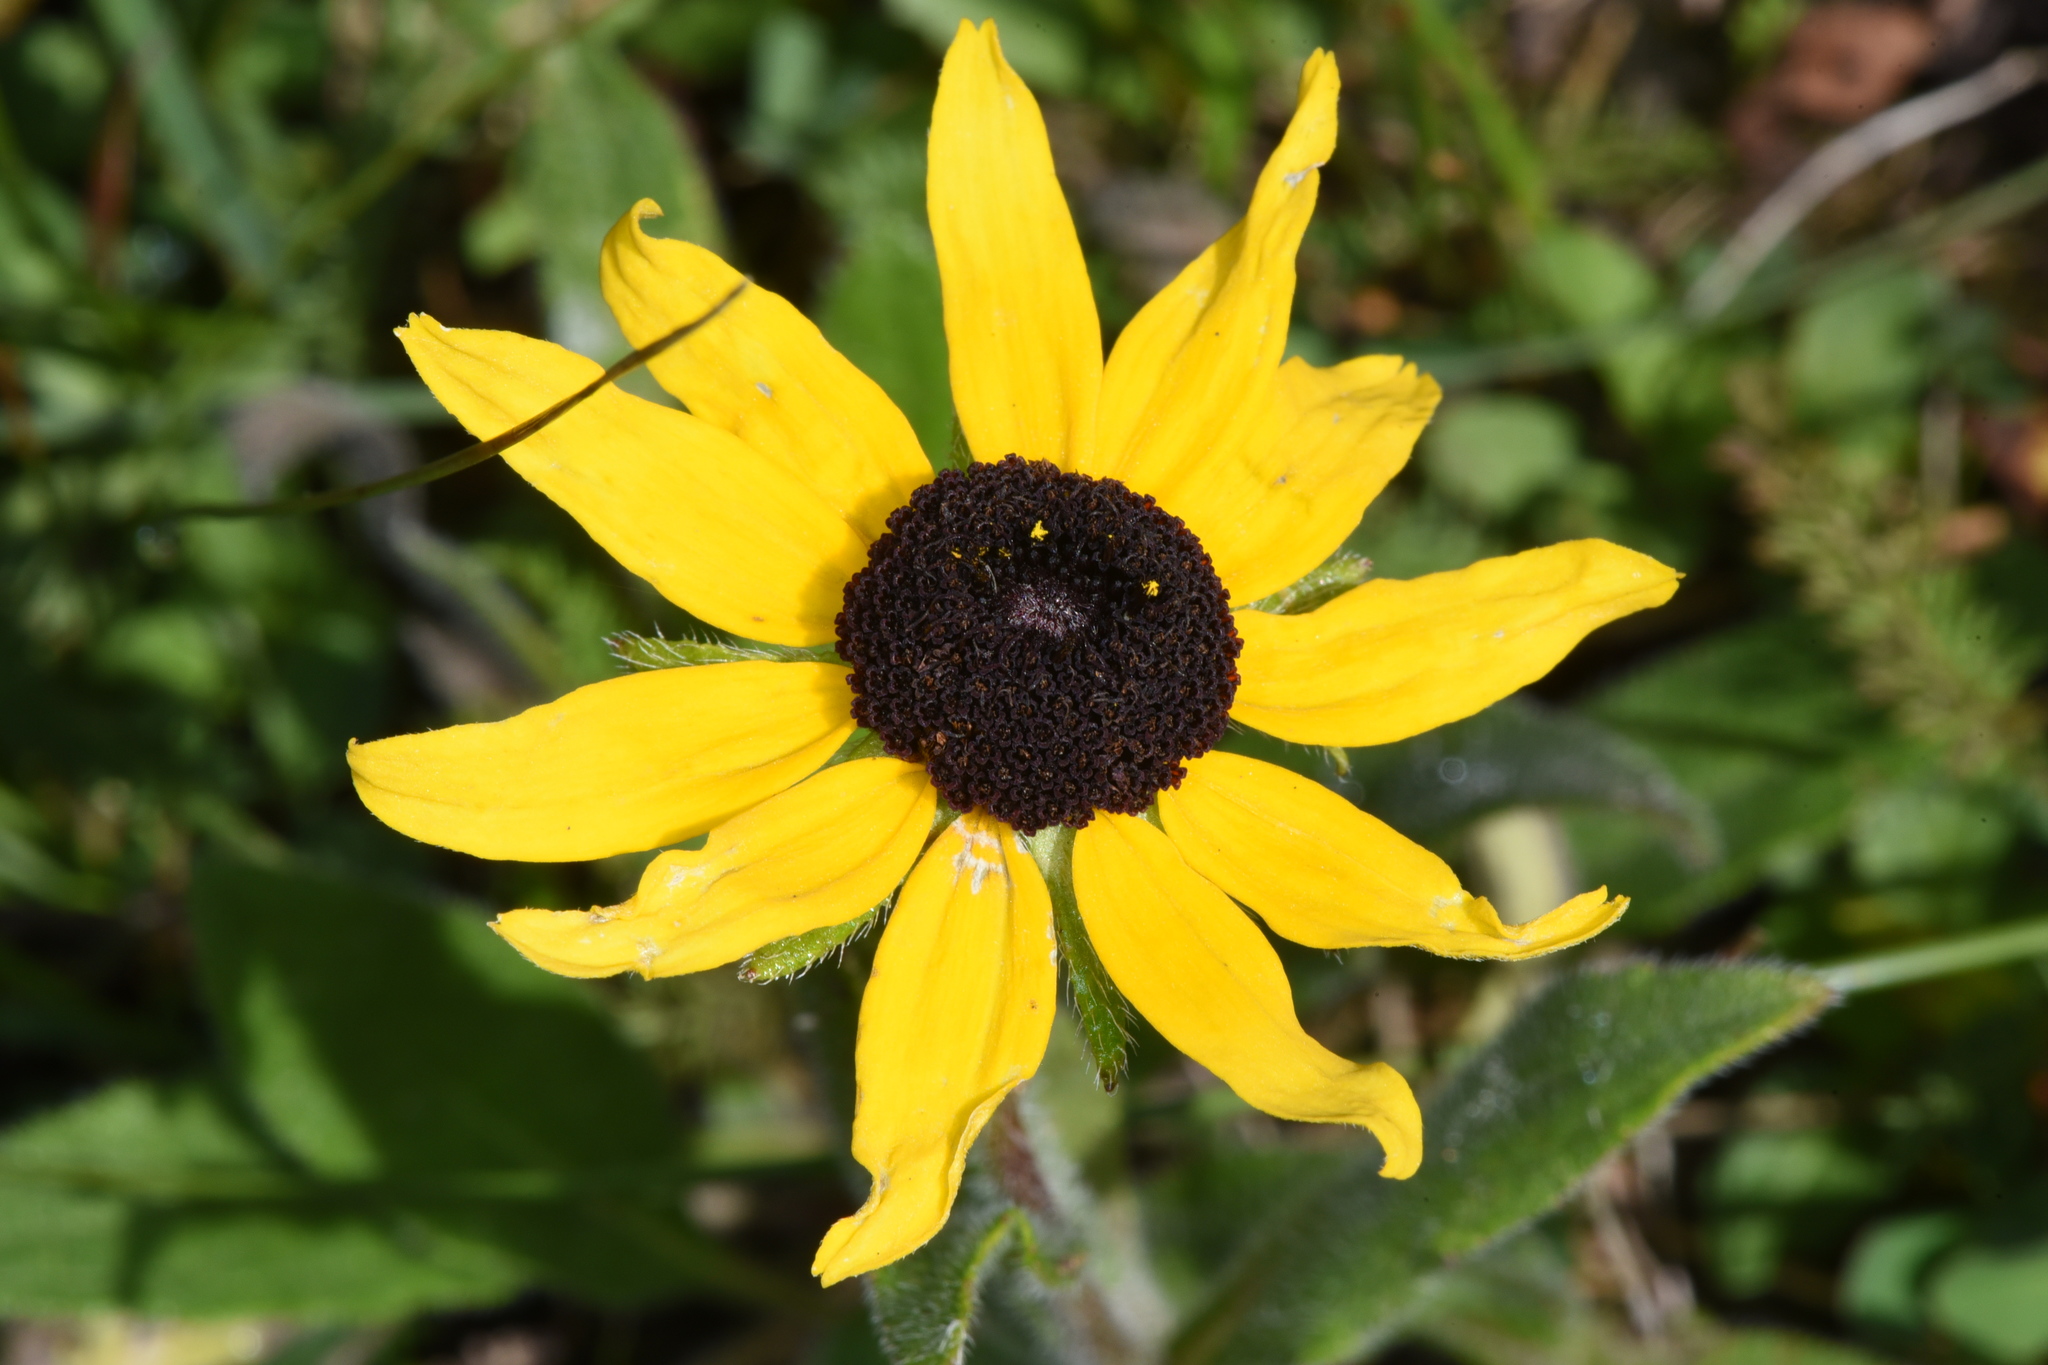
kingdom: Plantae
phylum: Tracheophyta
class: Magnoliopsida
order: Asterales
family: Asteraceae
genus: Rudbeckia
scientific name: Rudbeckia hirta
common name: Black-eyed-susan
